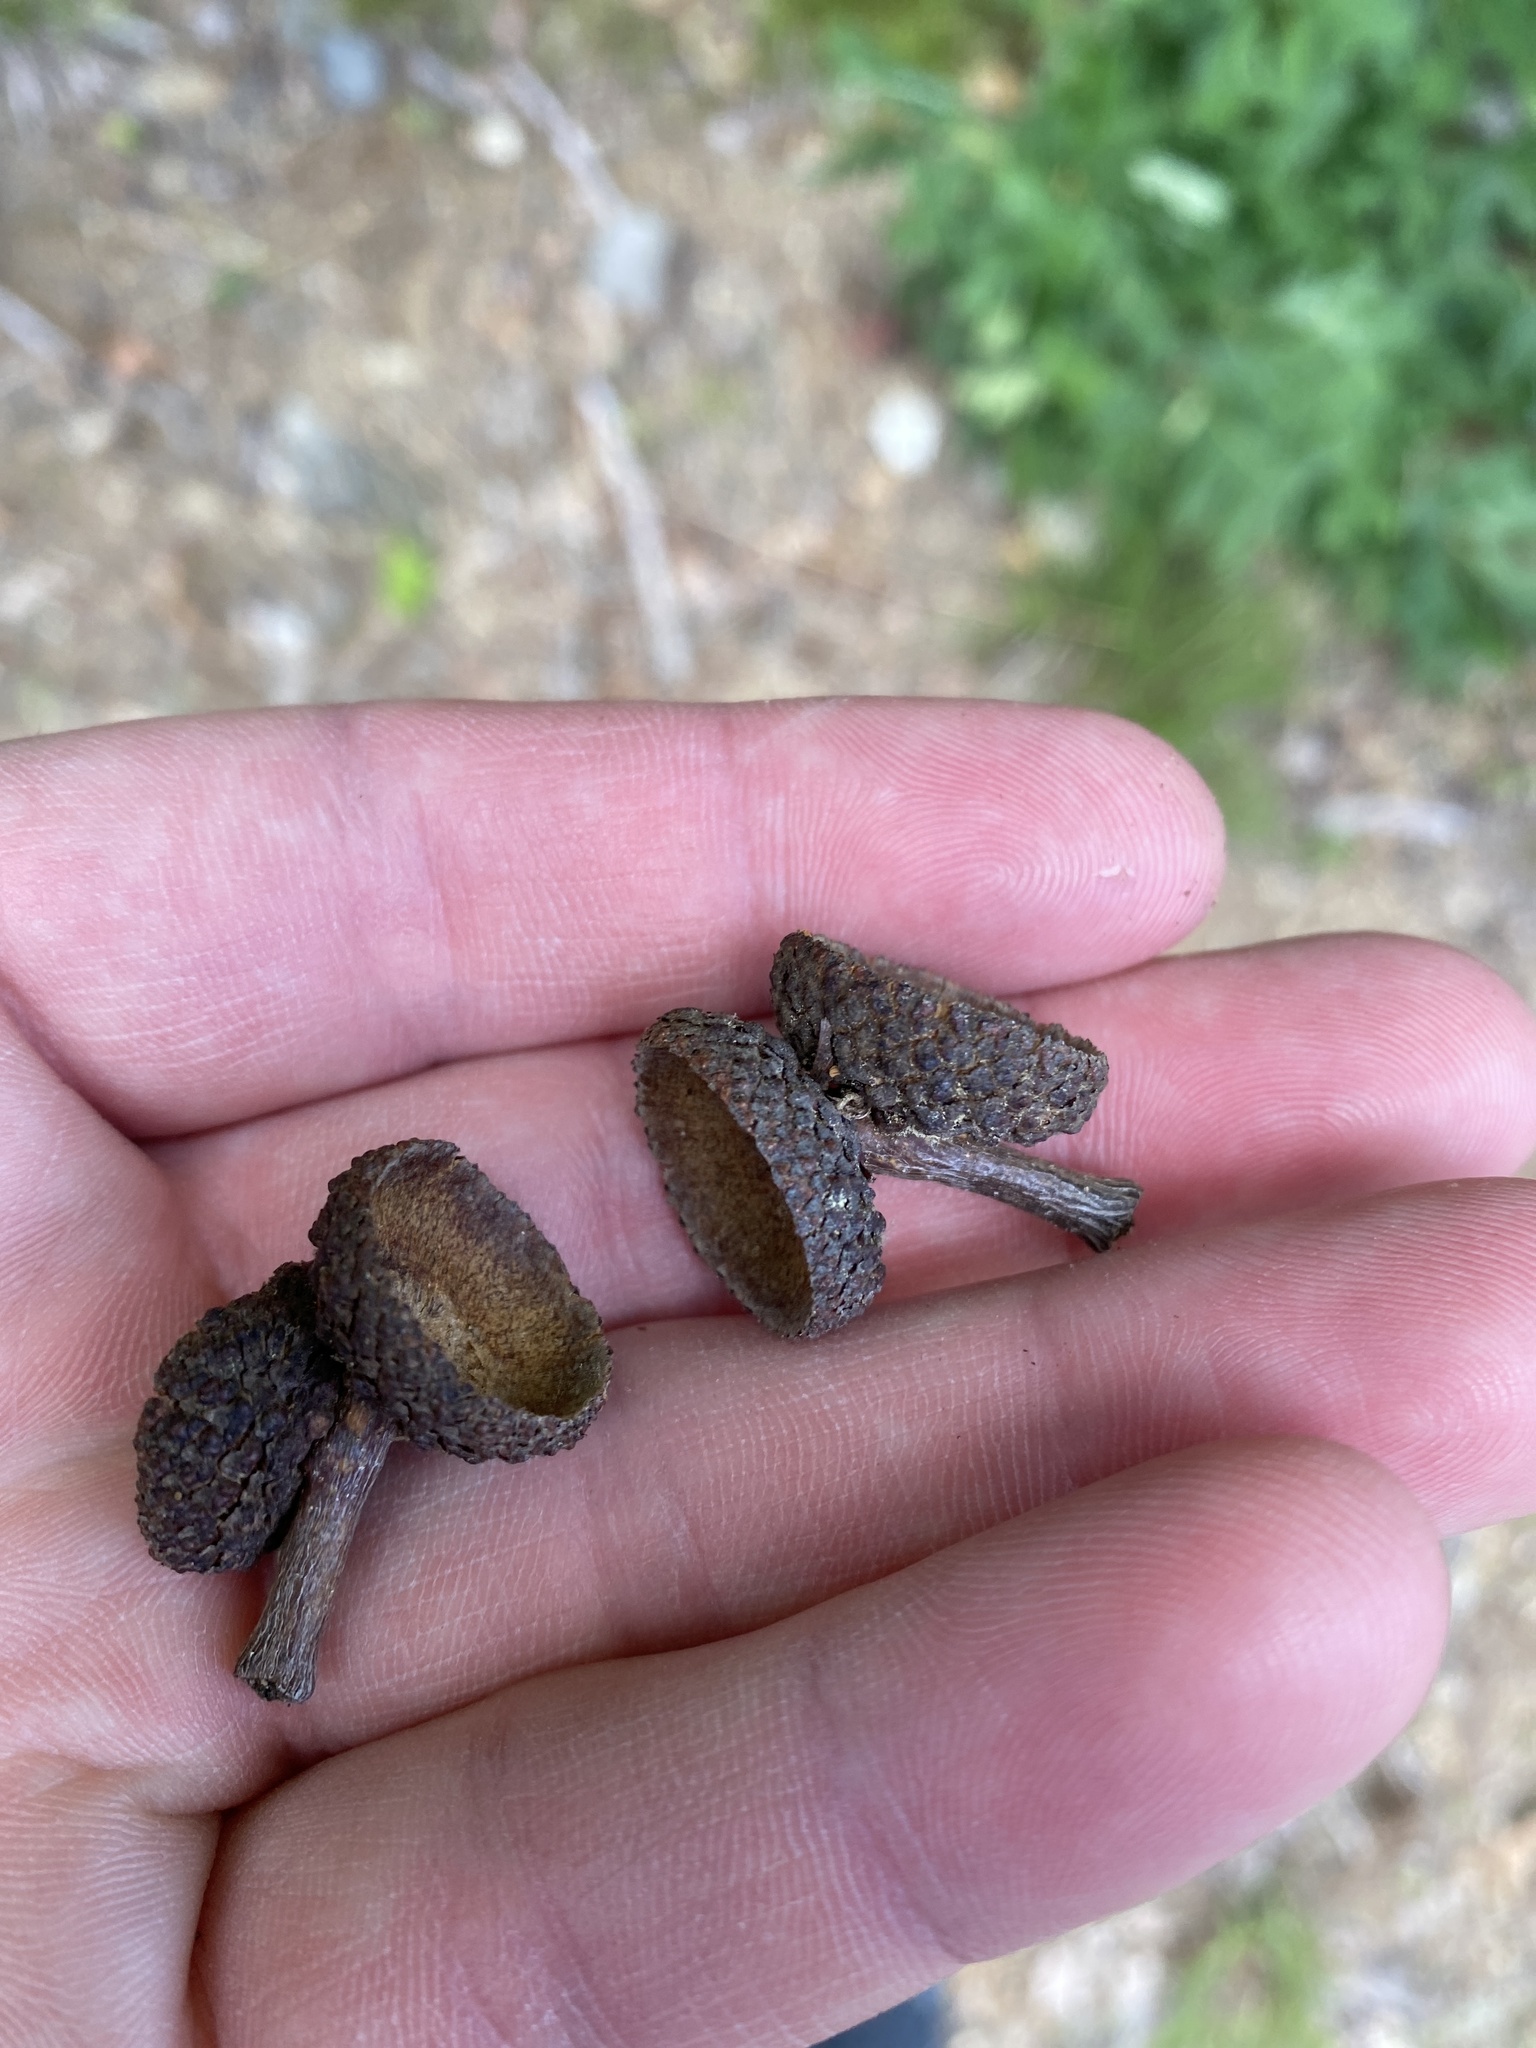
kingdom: Plantae
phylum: Tracheophyta
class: Magnoliopsida
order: Fagales
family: Fagaceae
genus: Quercus
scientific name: Quercus alba
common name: White oak
